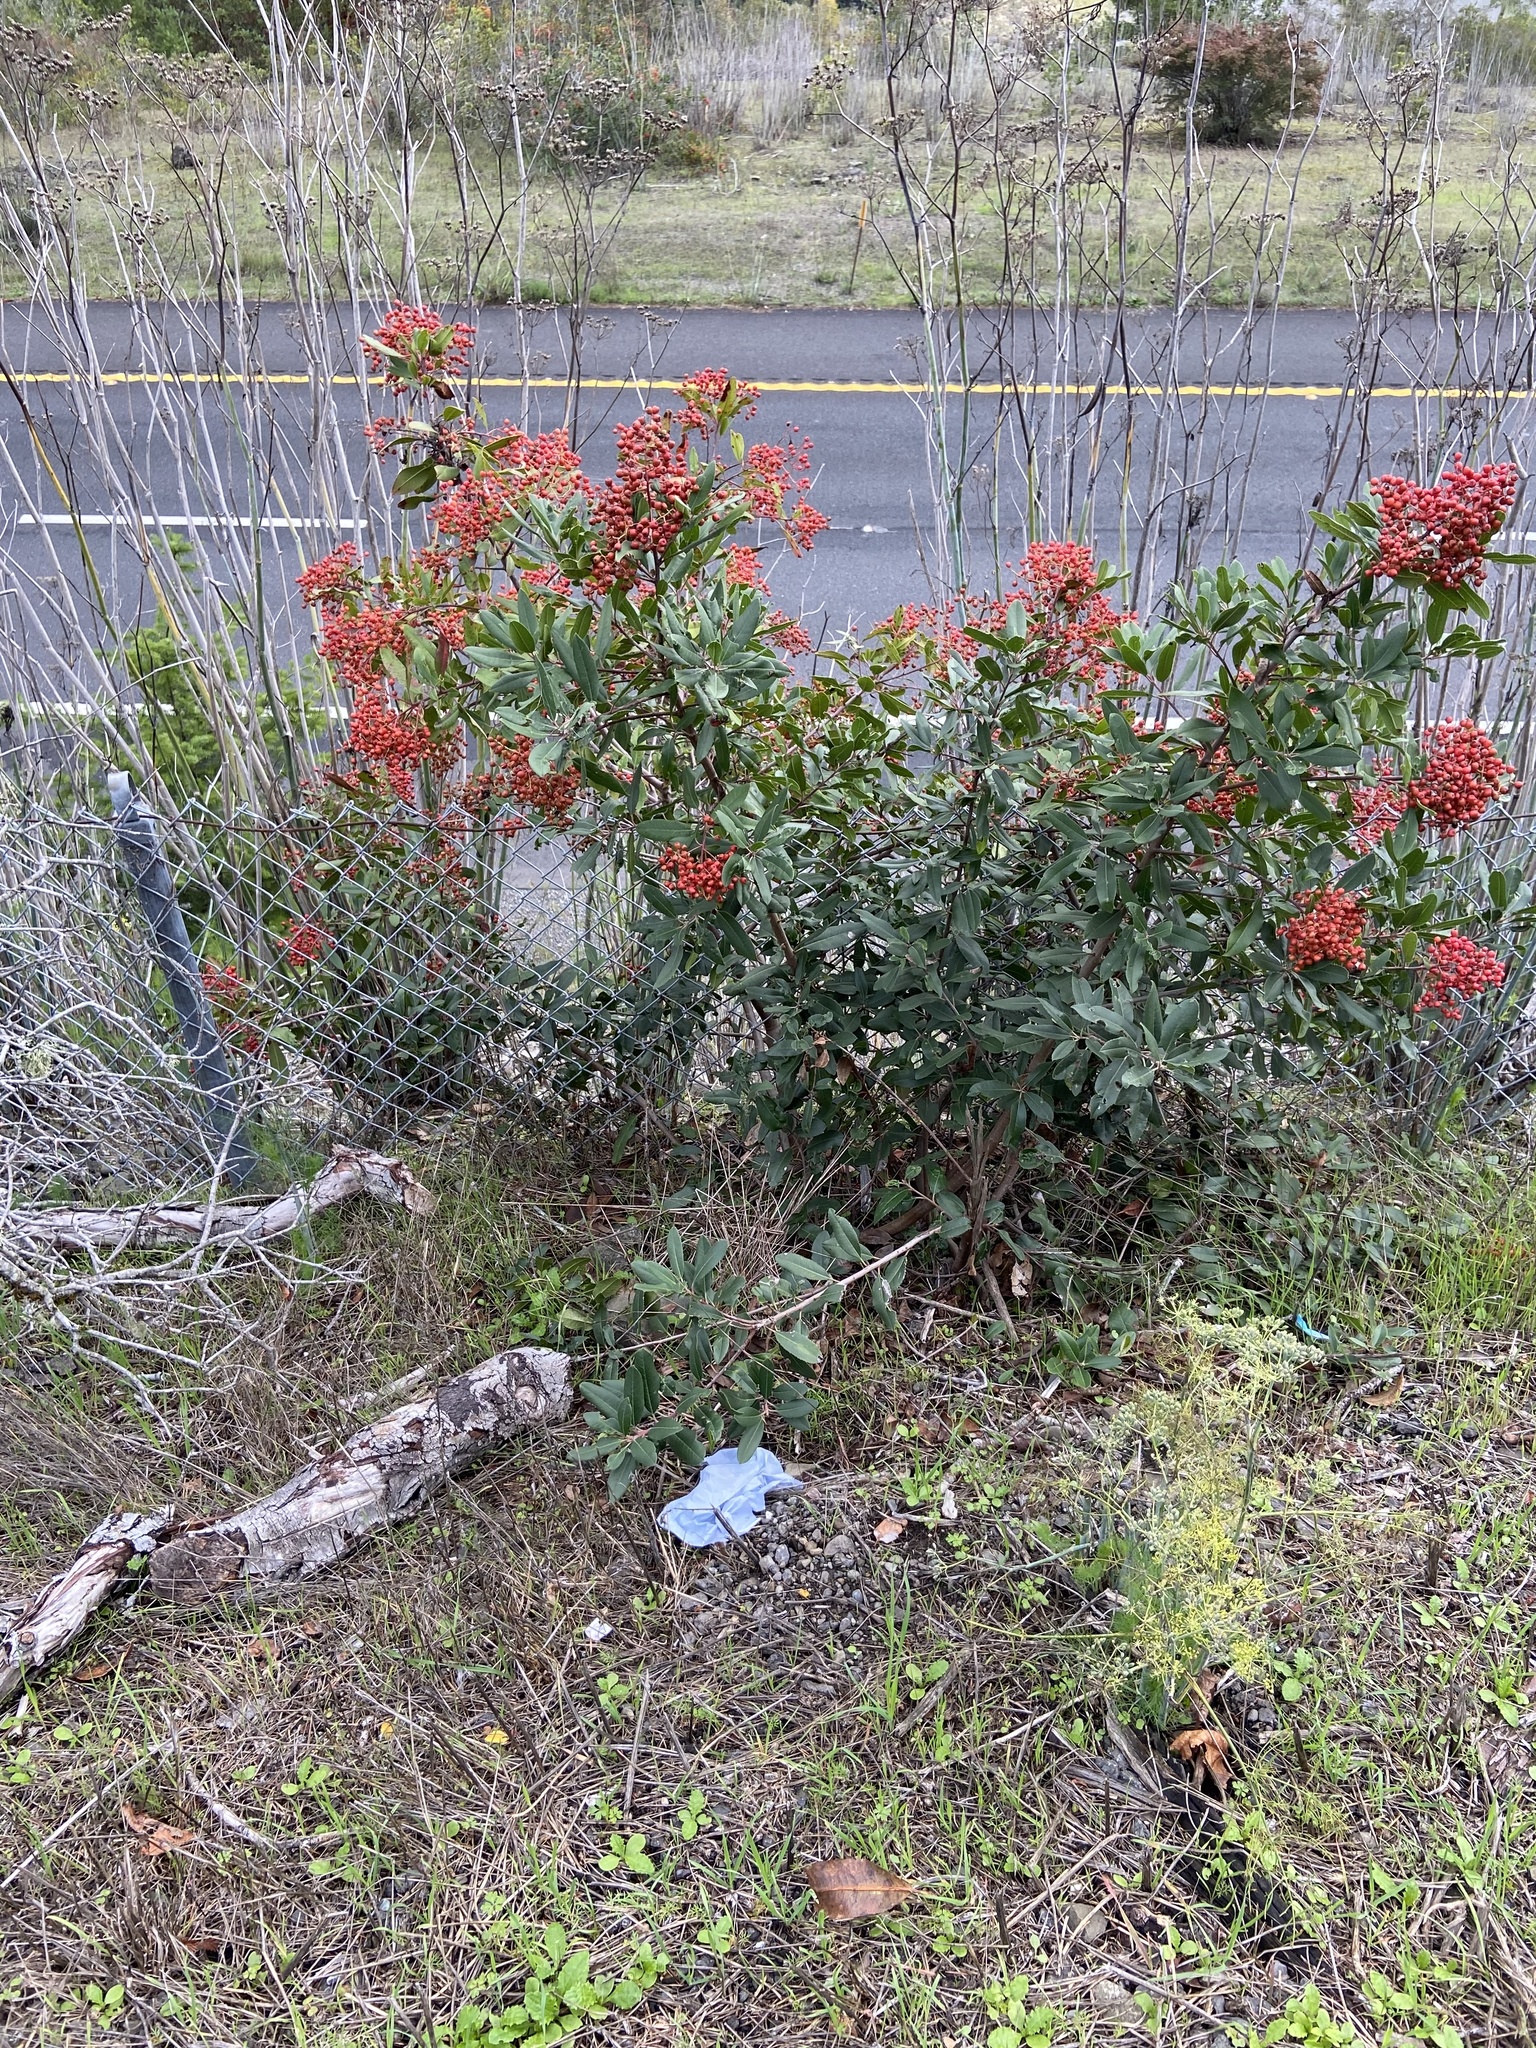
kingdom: Plantae
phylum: Tracheophyta
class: Magnoliopsida
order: Rosales
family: Rosaceae
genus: Heteromeles
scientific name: Heteromeles arbutifolia
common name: California-holly
